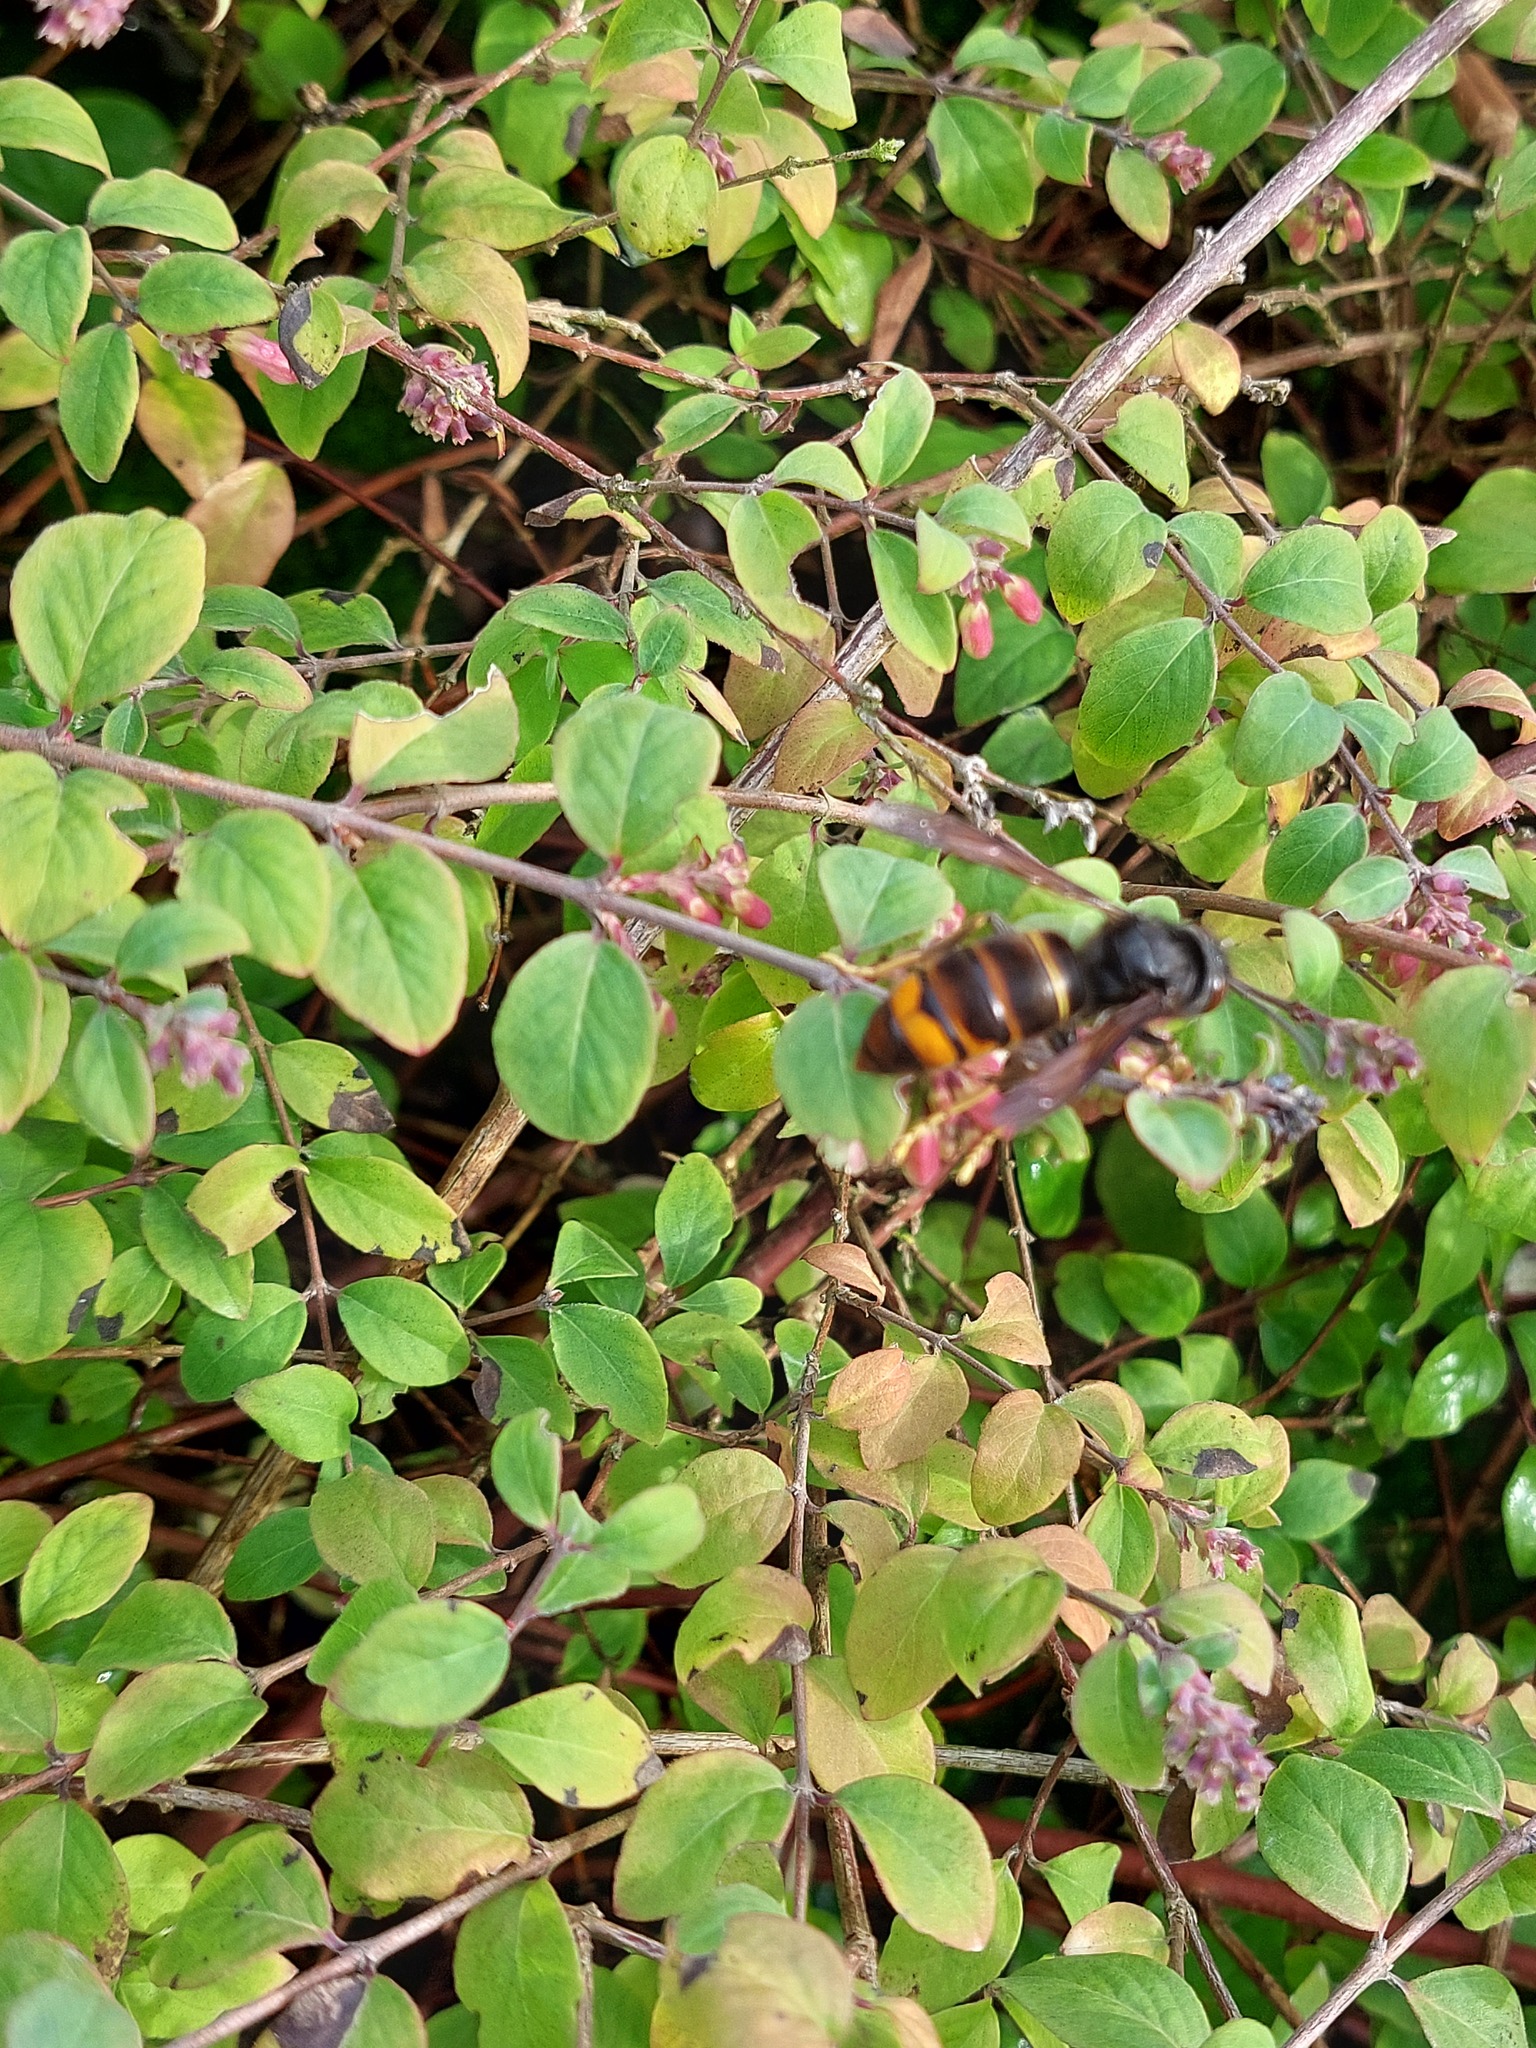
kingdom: Animalia
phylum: Arthropoda
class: Insecta
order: Hymenoptera
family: Vespidae
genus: Vespa
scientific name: Vespa velutina
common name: Asian hornet
